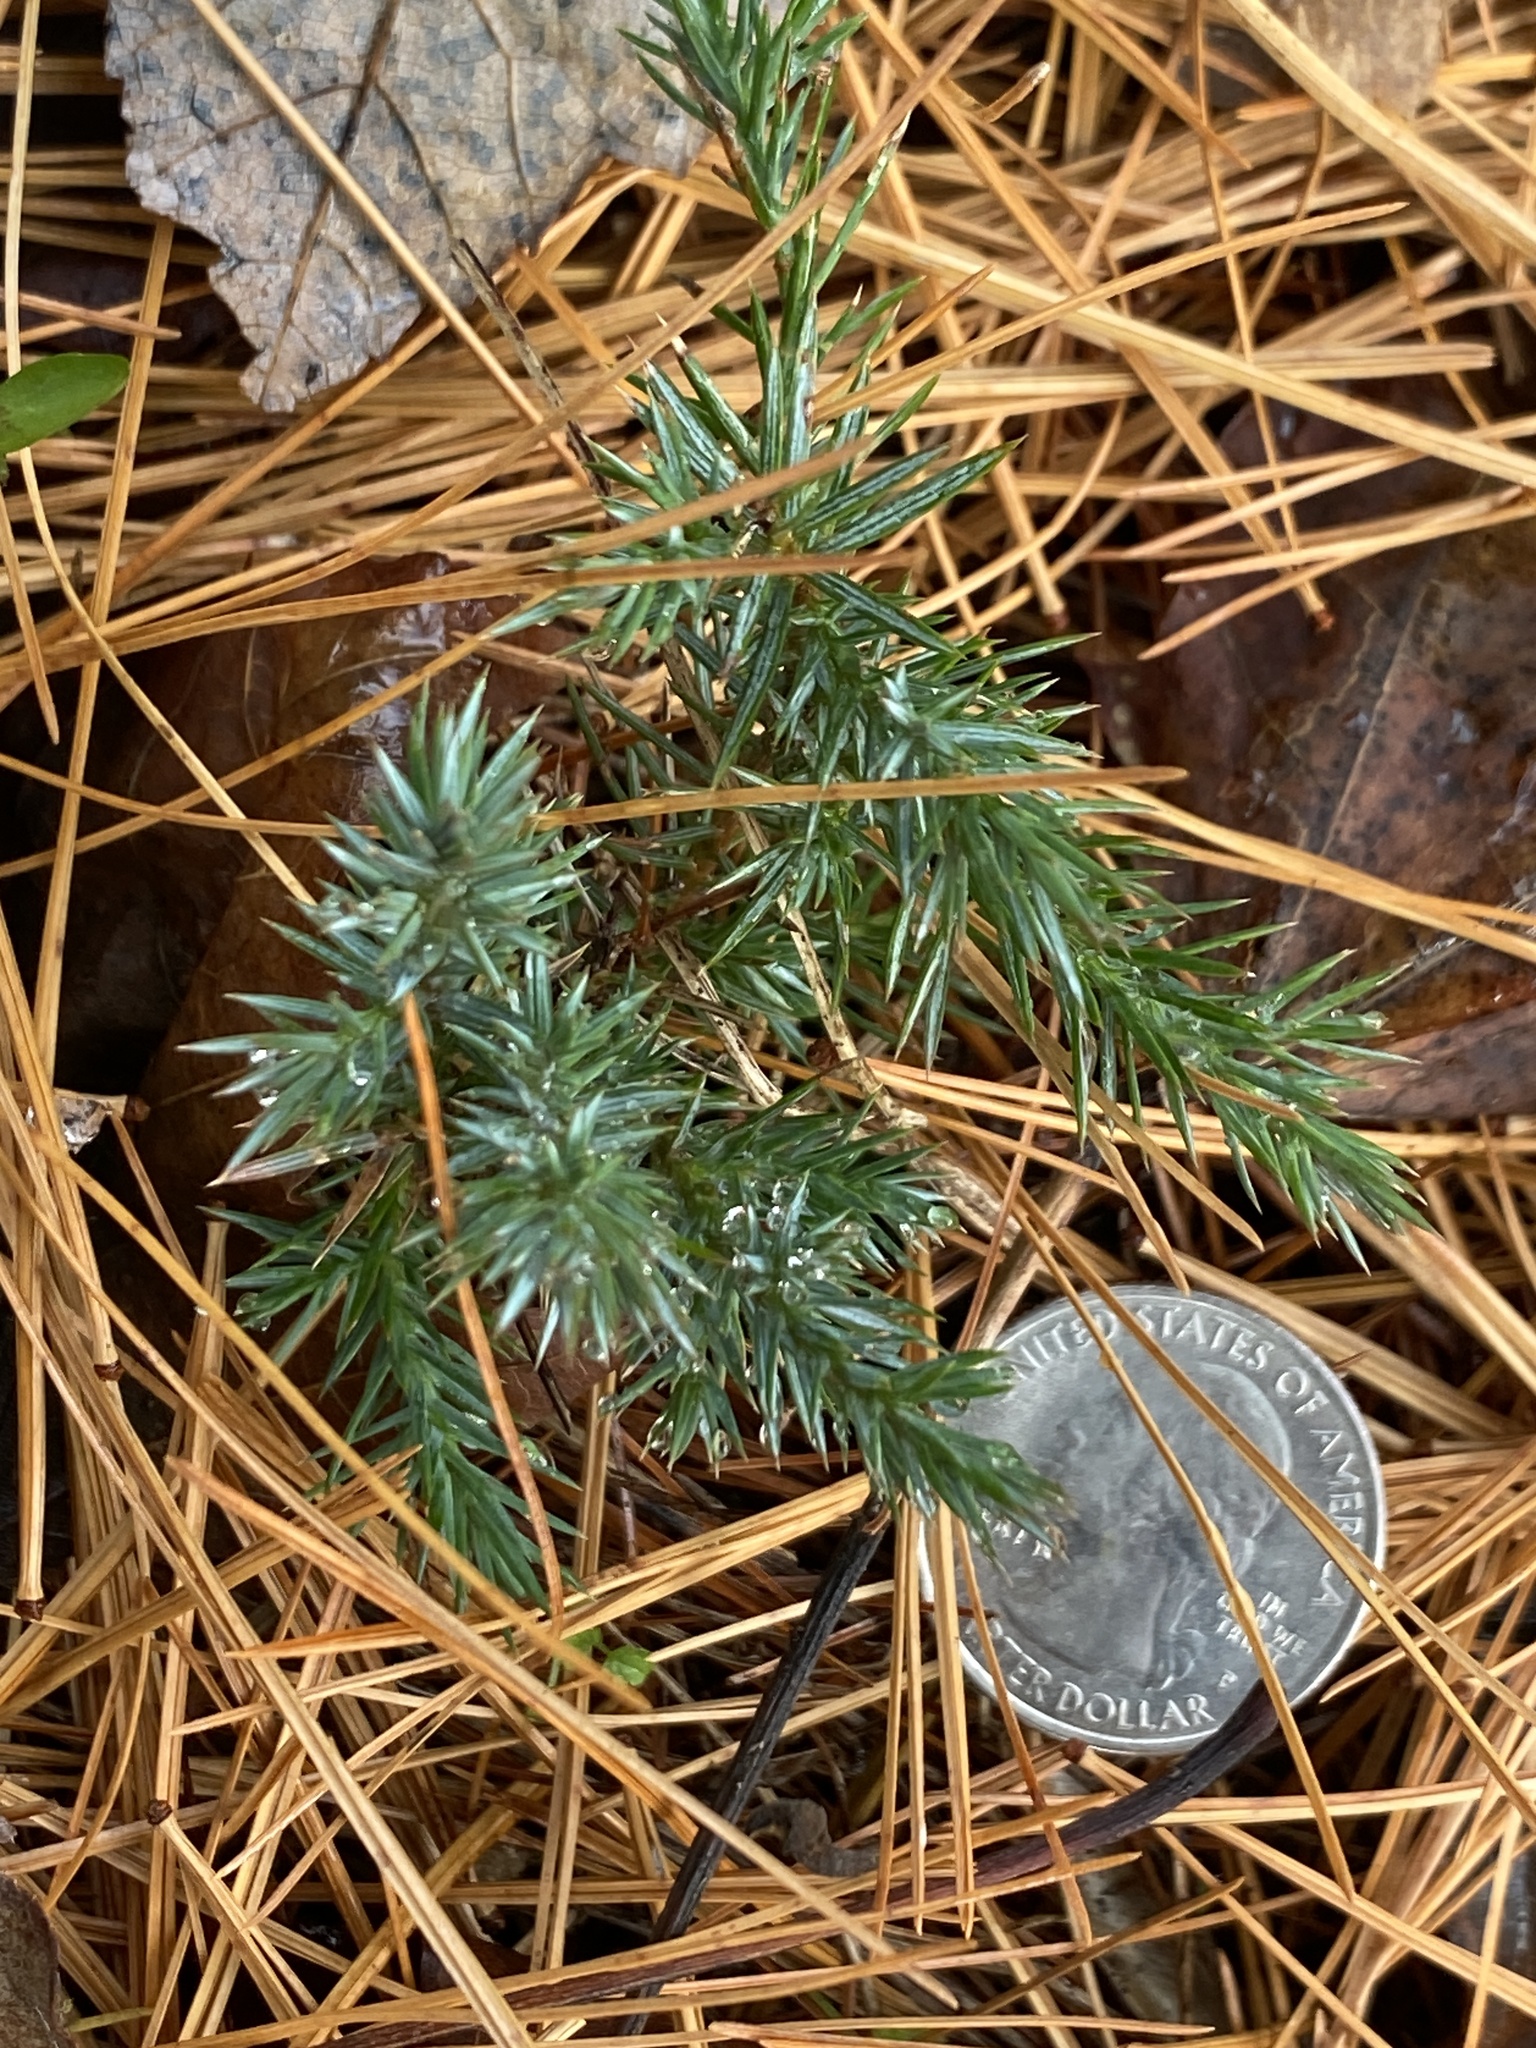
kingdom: Plantae
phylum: Tracheophyta
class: Pinopsida
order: Pinales
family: Cupressaceae
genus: Juniperus
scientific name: Juniperus virginiana
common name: Red juniper
